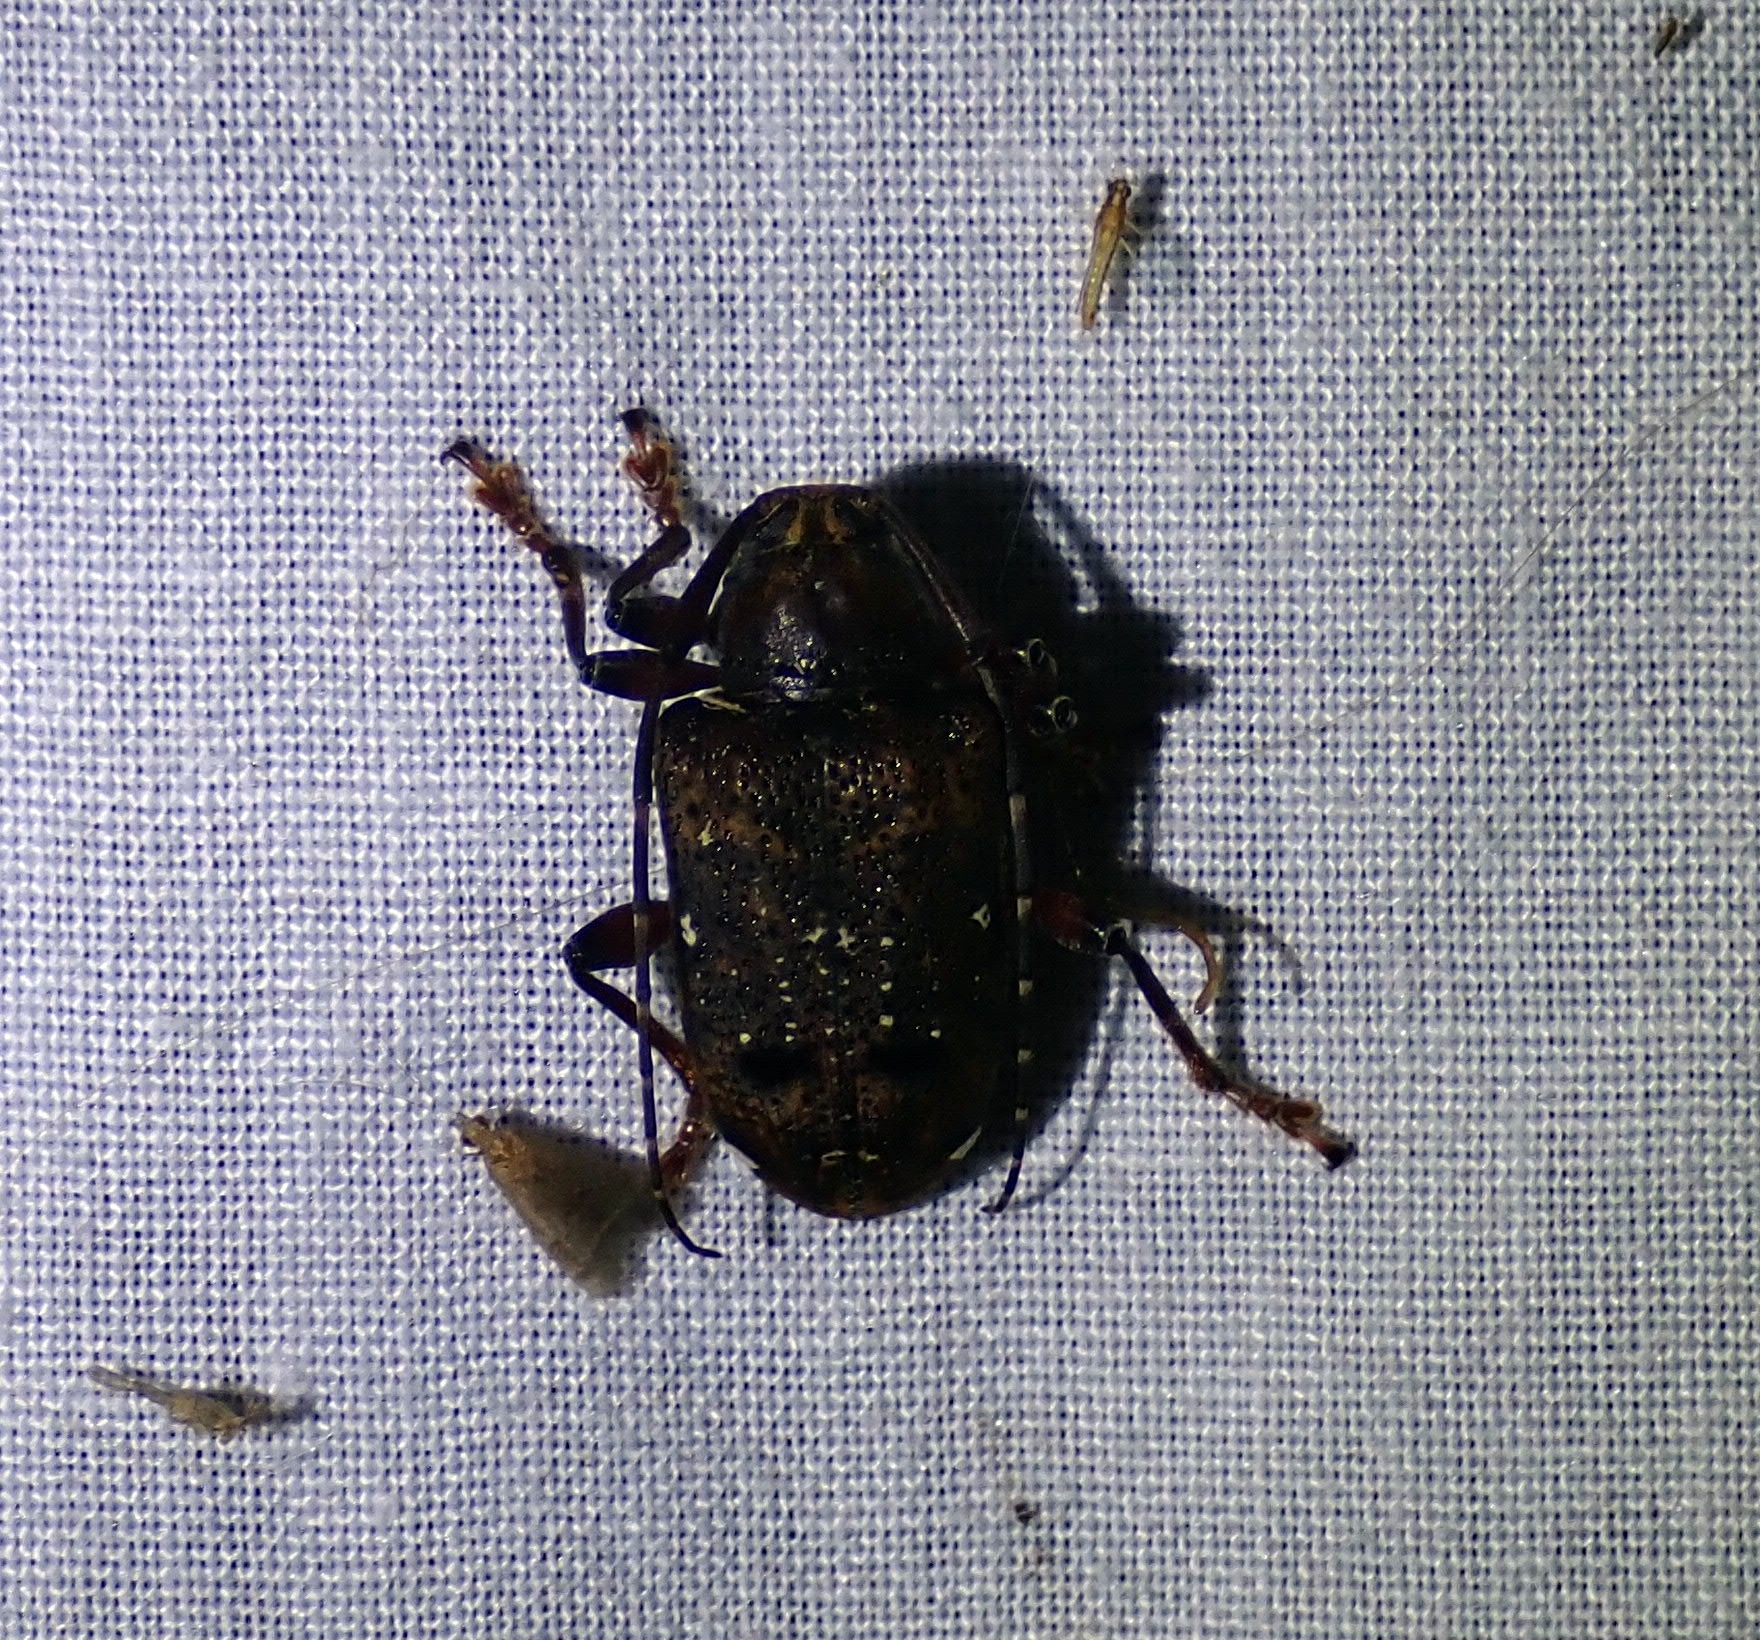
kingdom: Animalia
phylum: Arthropoda
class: Insecta
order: Coleoptera
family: Cerambycidae
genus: Trypanidius
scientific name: Trypanidius rubripes
